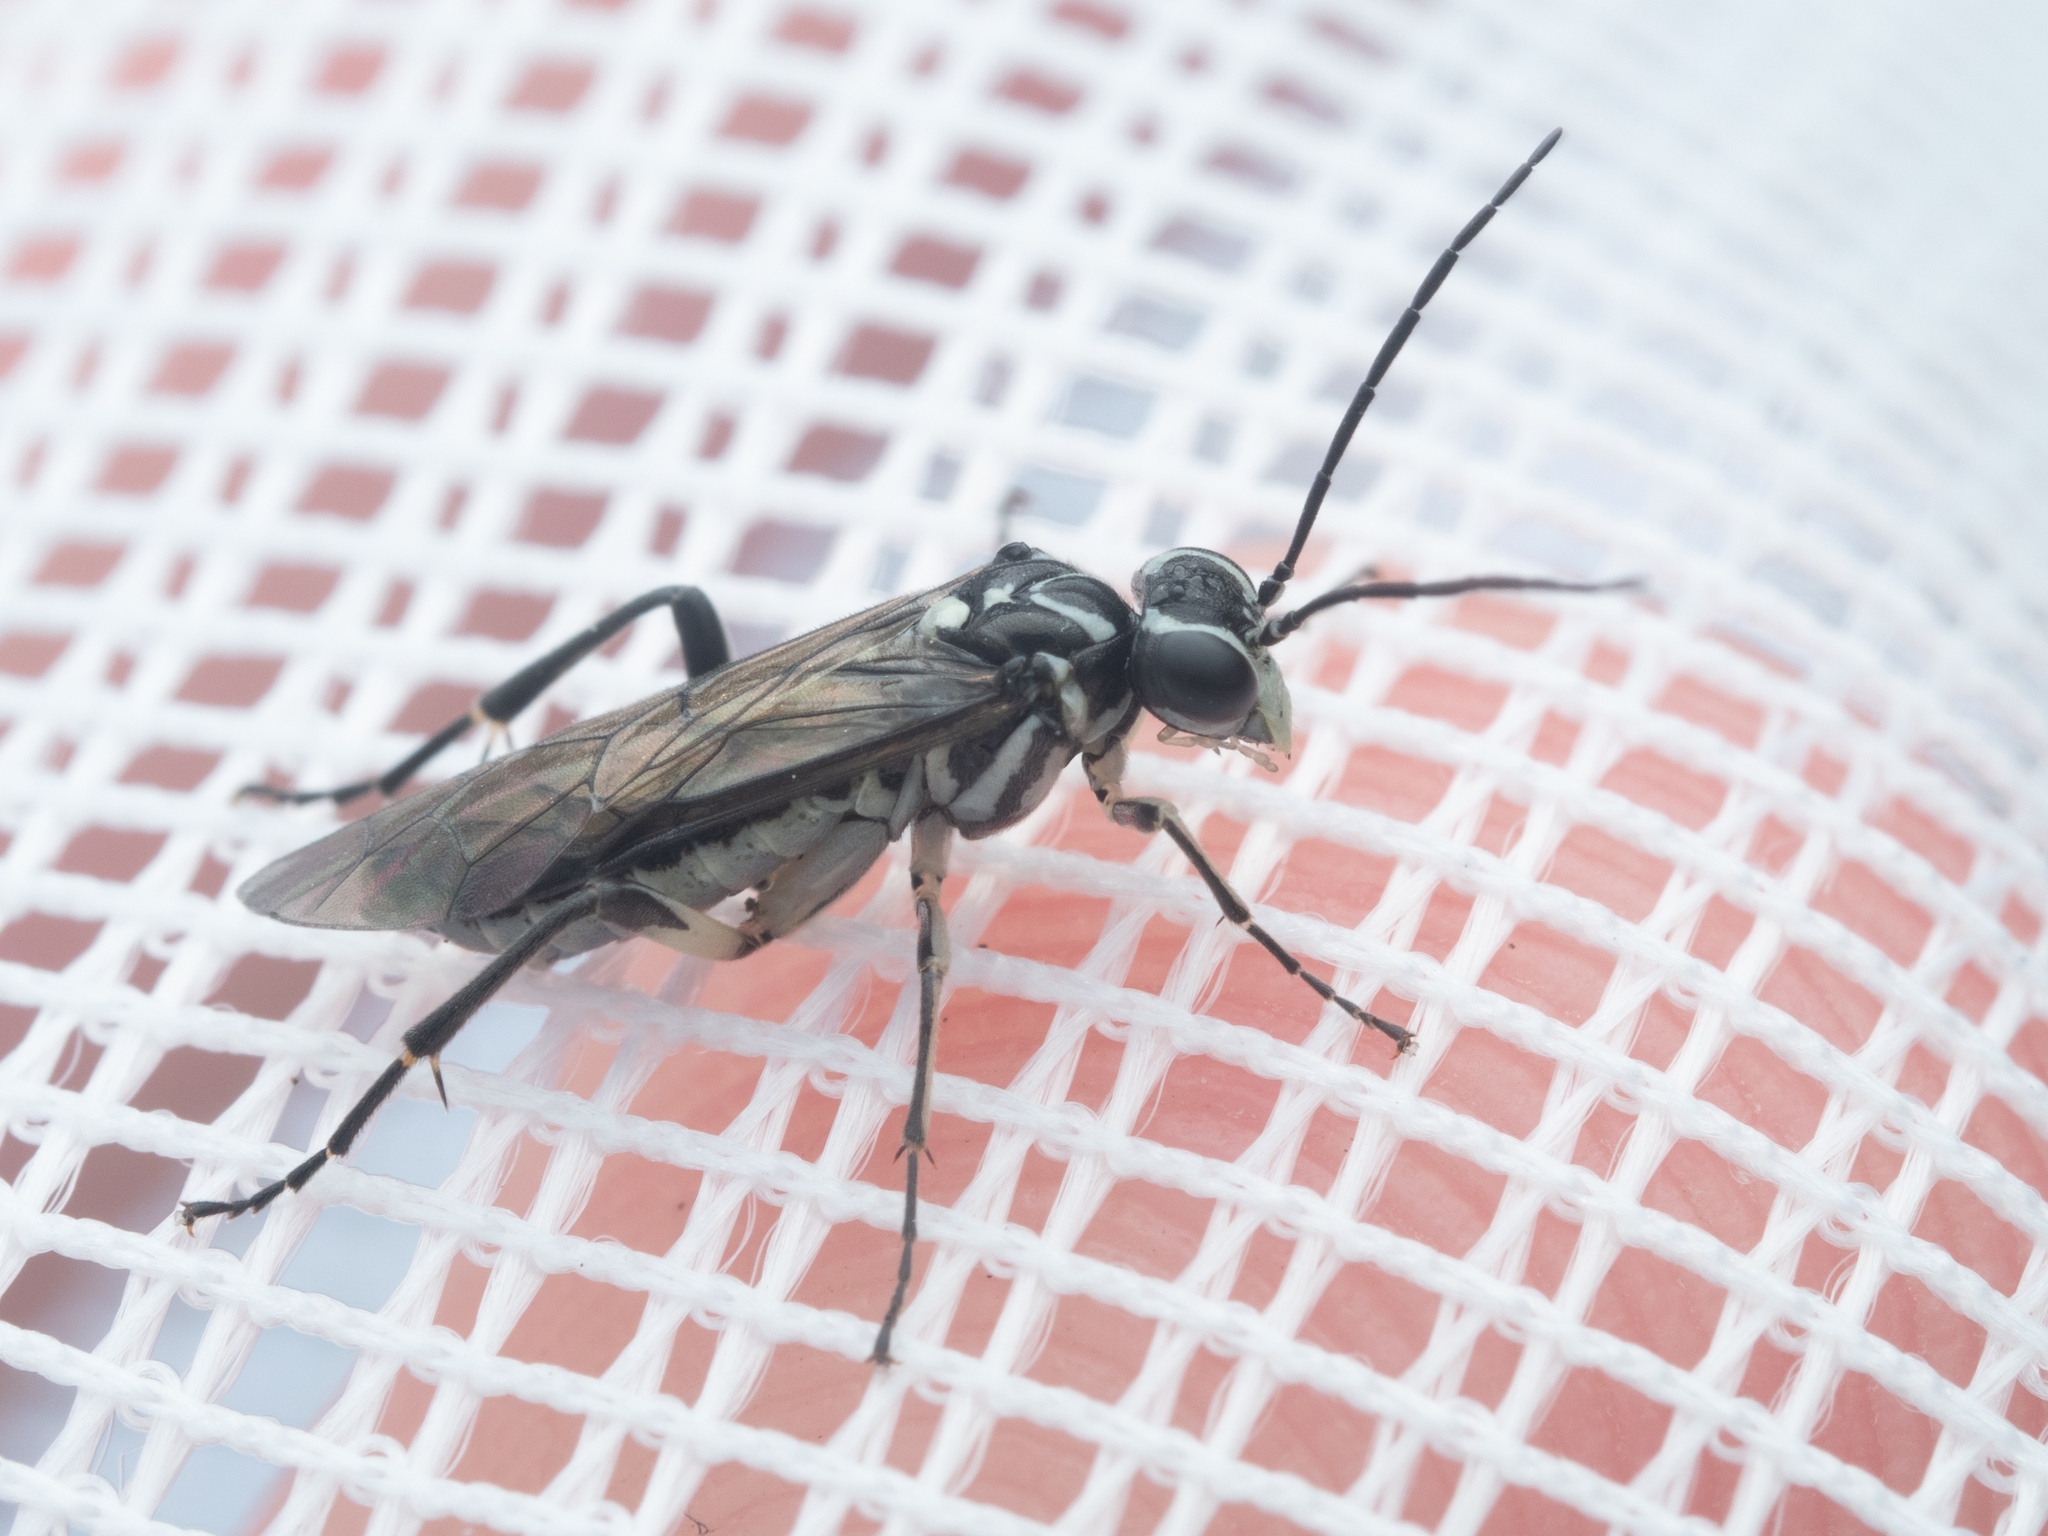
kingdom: Animalia
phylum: Arthropoda
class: Insecta
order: Hymenoptera
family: Tenthredinidae
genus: Pachyprotasis
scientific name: Pachyprotasis rapae
